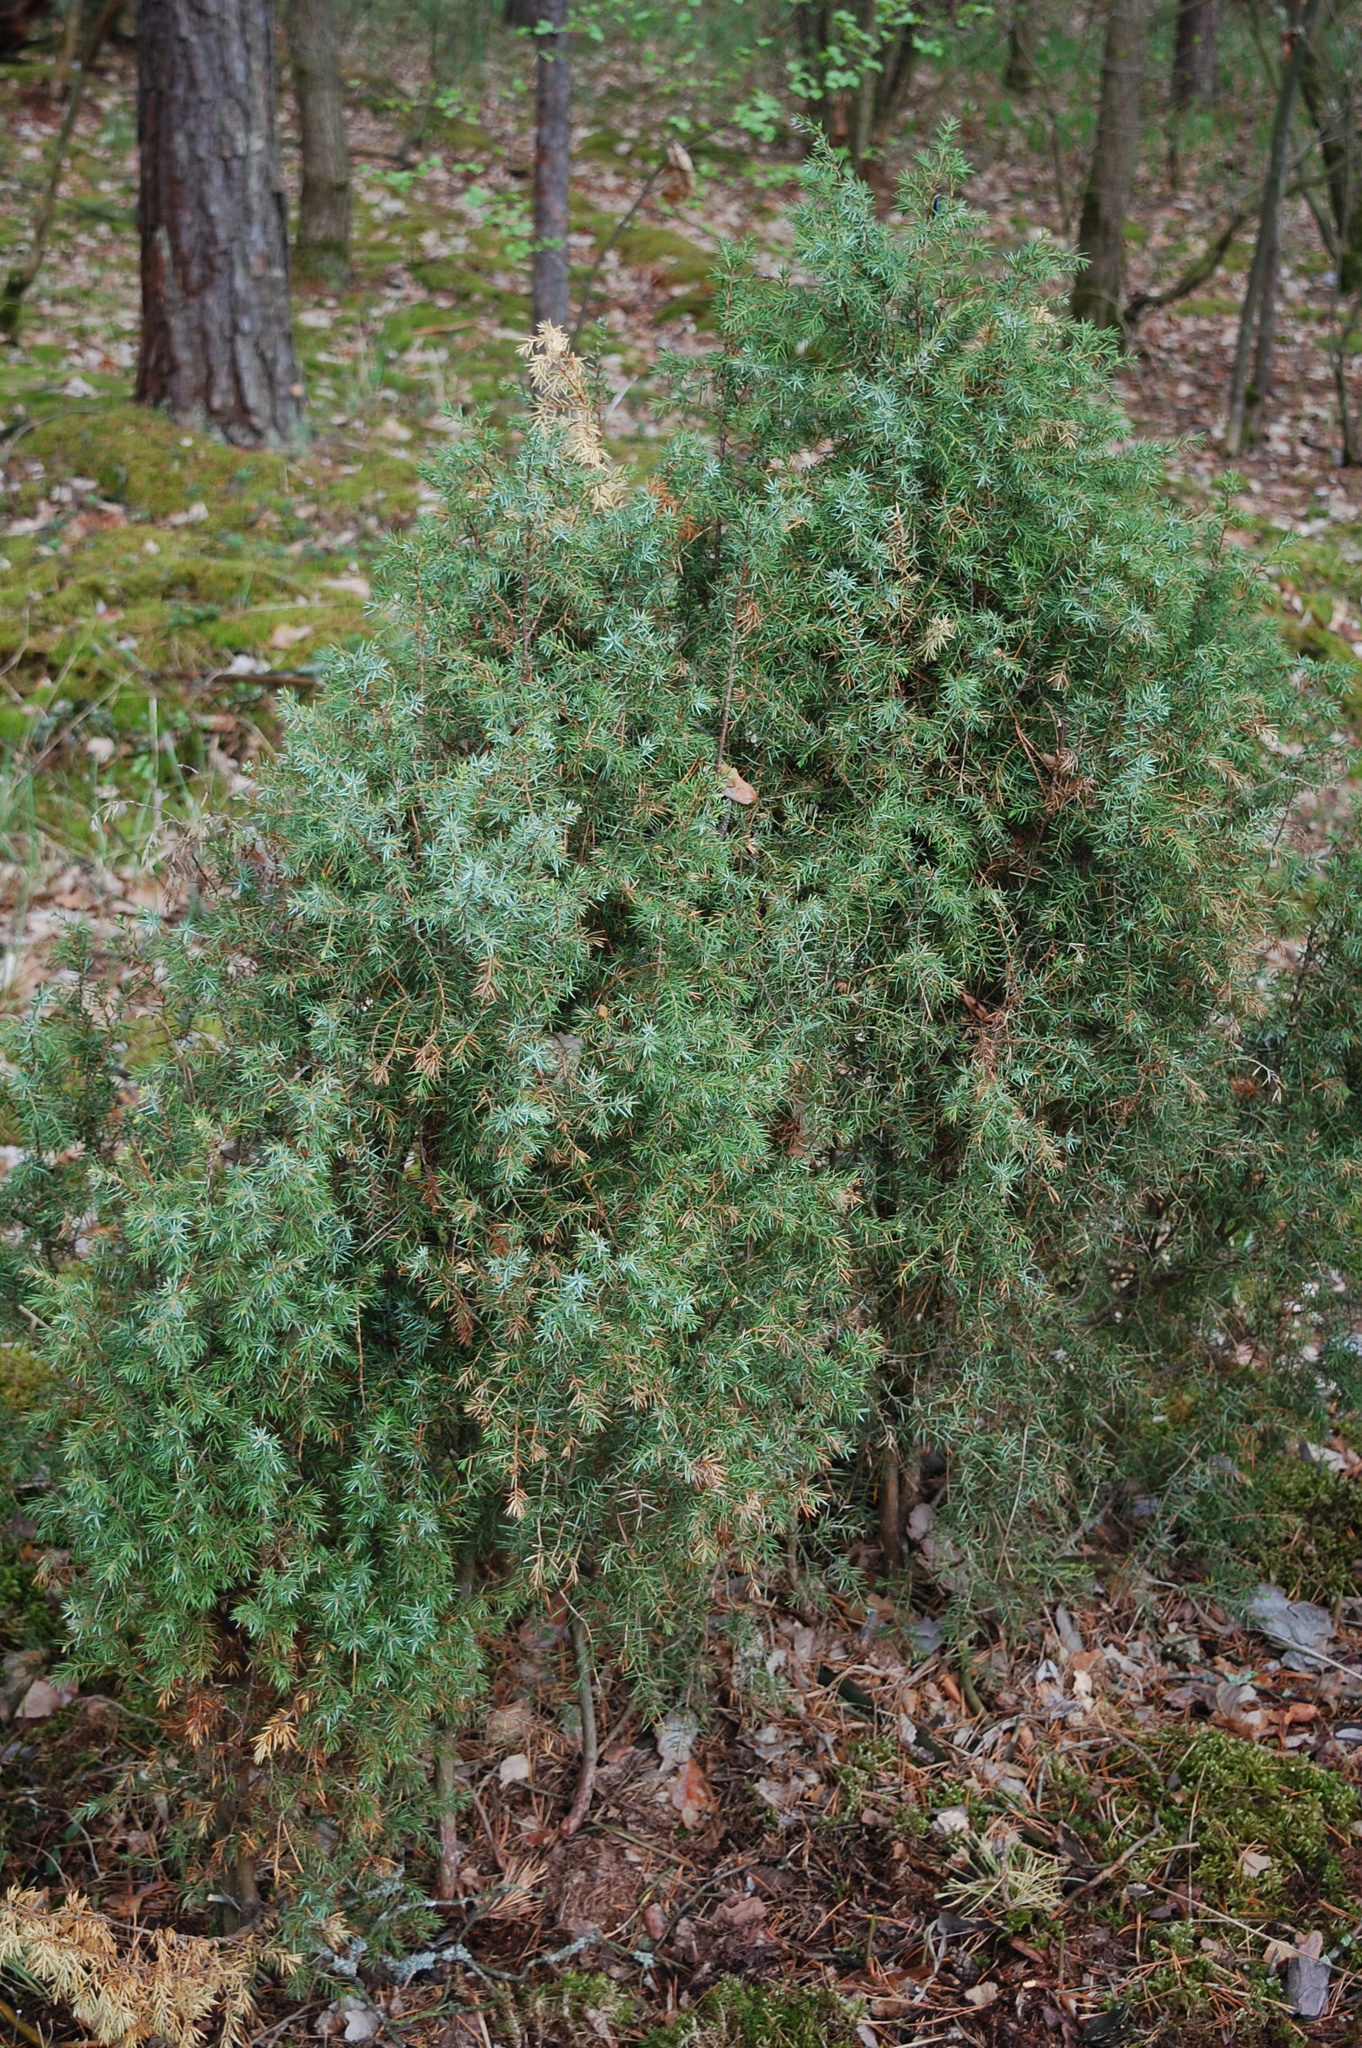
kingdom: Plantae
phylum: Tracheophyta
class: Pinopsida
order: Pinales
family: Cupressaceae
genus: Juniperus
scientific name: Juniperus communis
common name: Common juniper
